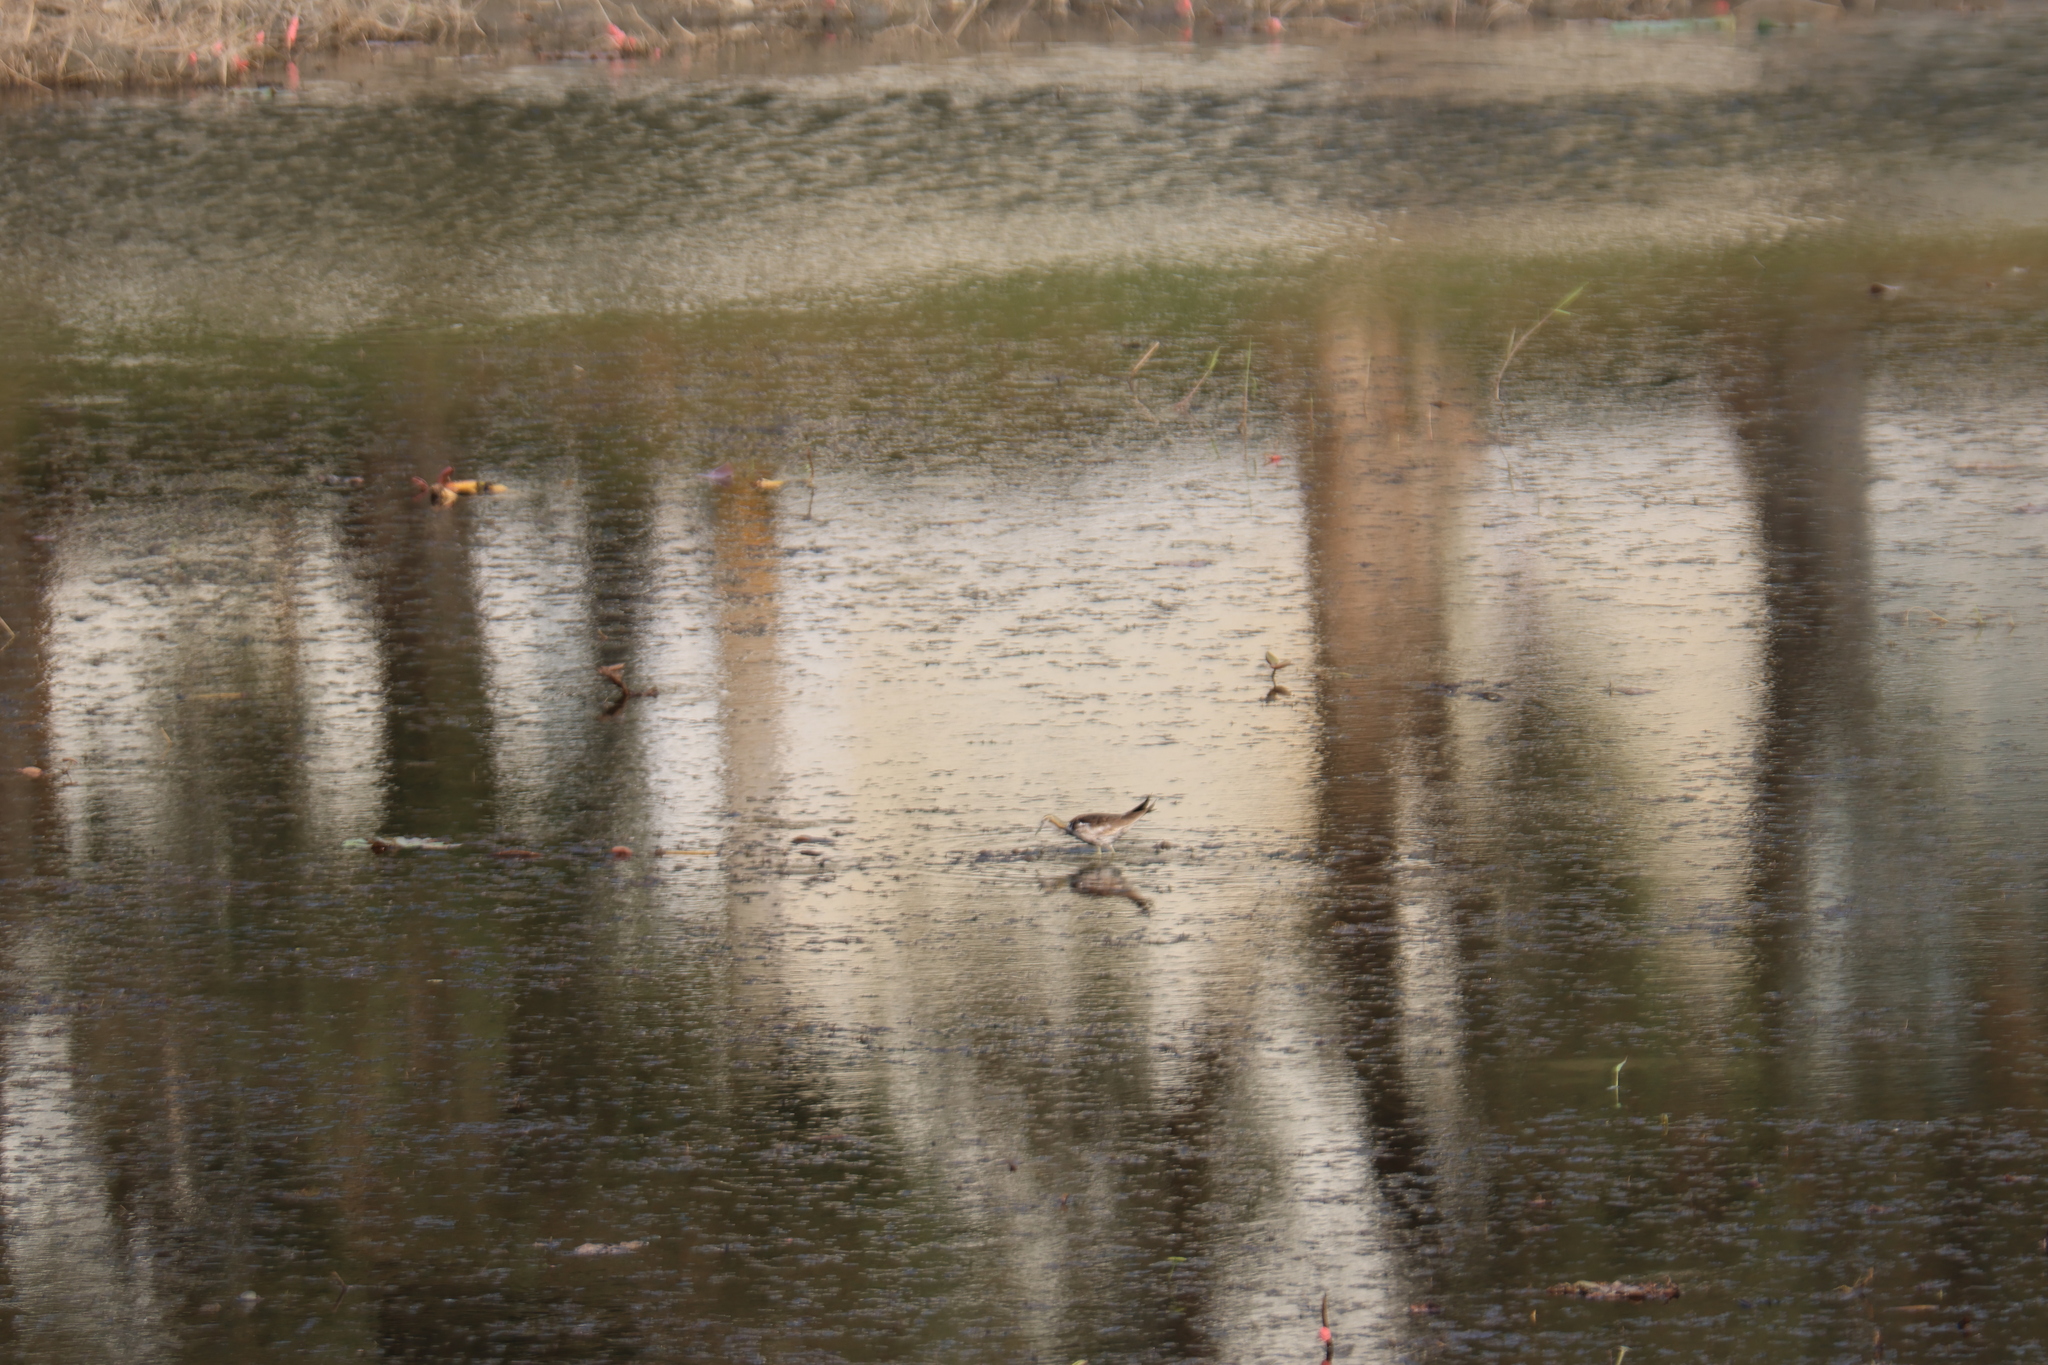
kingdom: Animalia
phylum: Chordata
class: Aves
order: Charadriiformes
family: Jacanidae
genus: Hydrophasianus
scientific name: Hydrophasianus chirurgus
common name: Pheasant-tailed jacana
